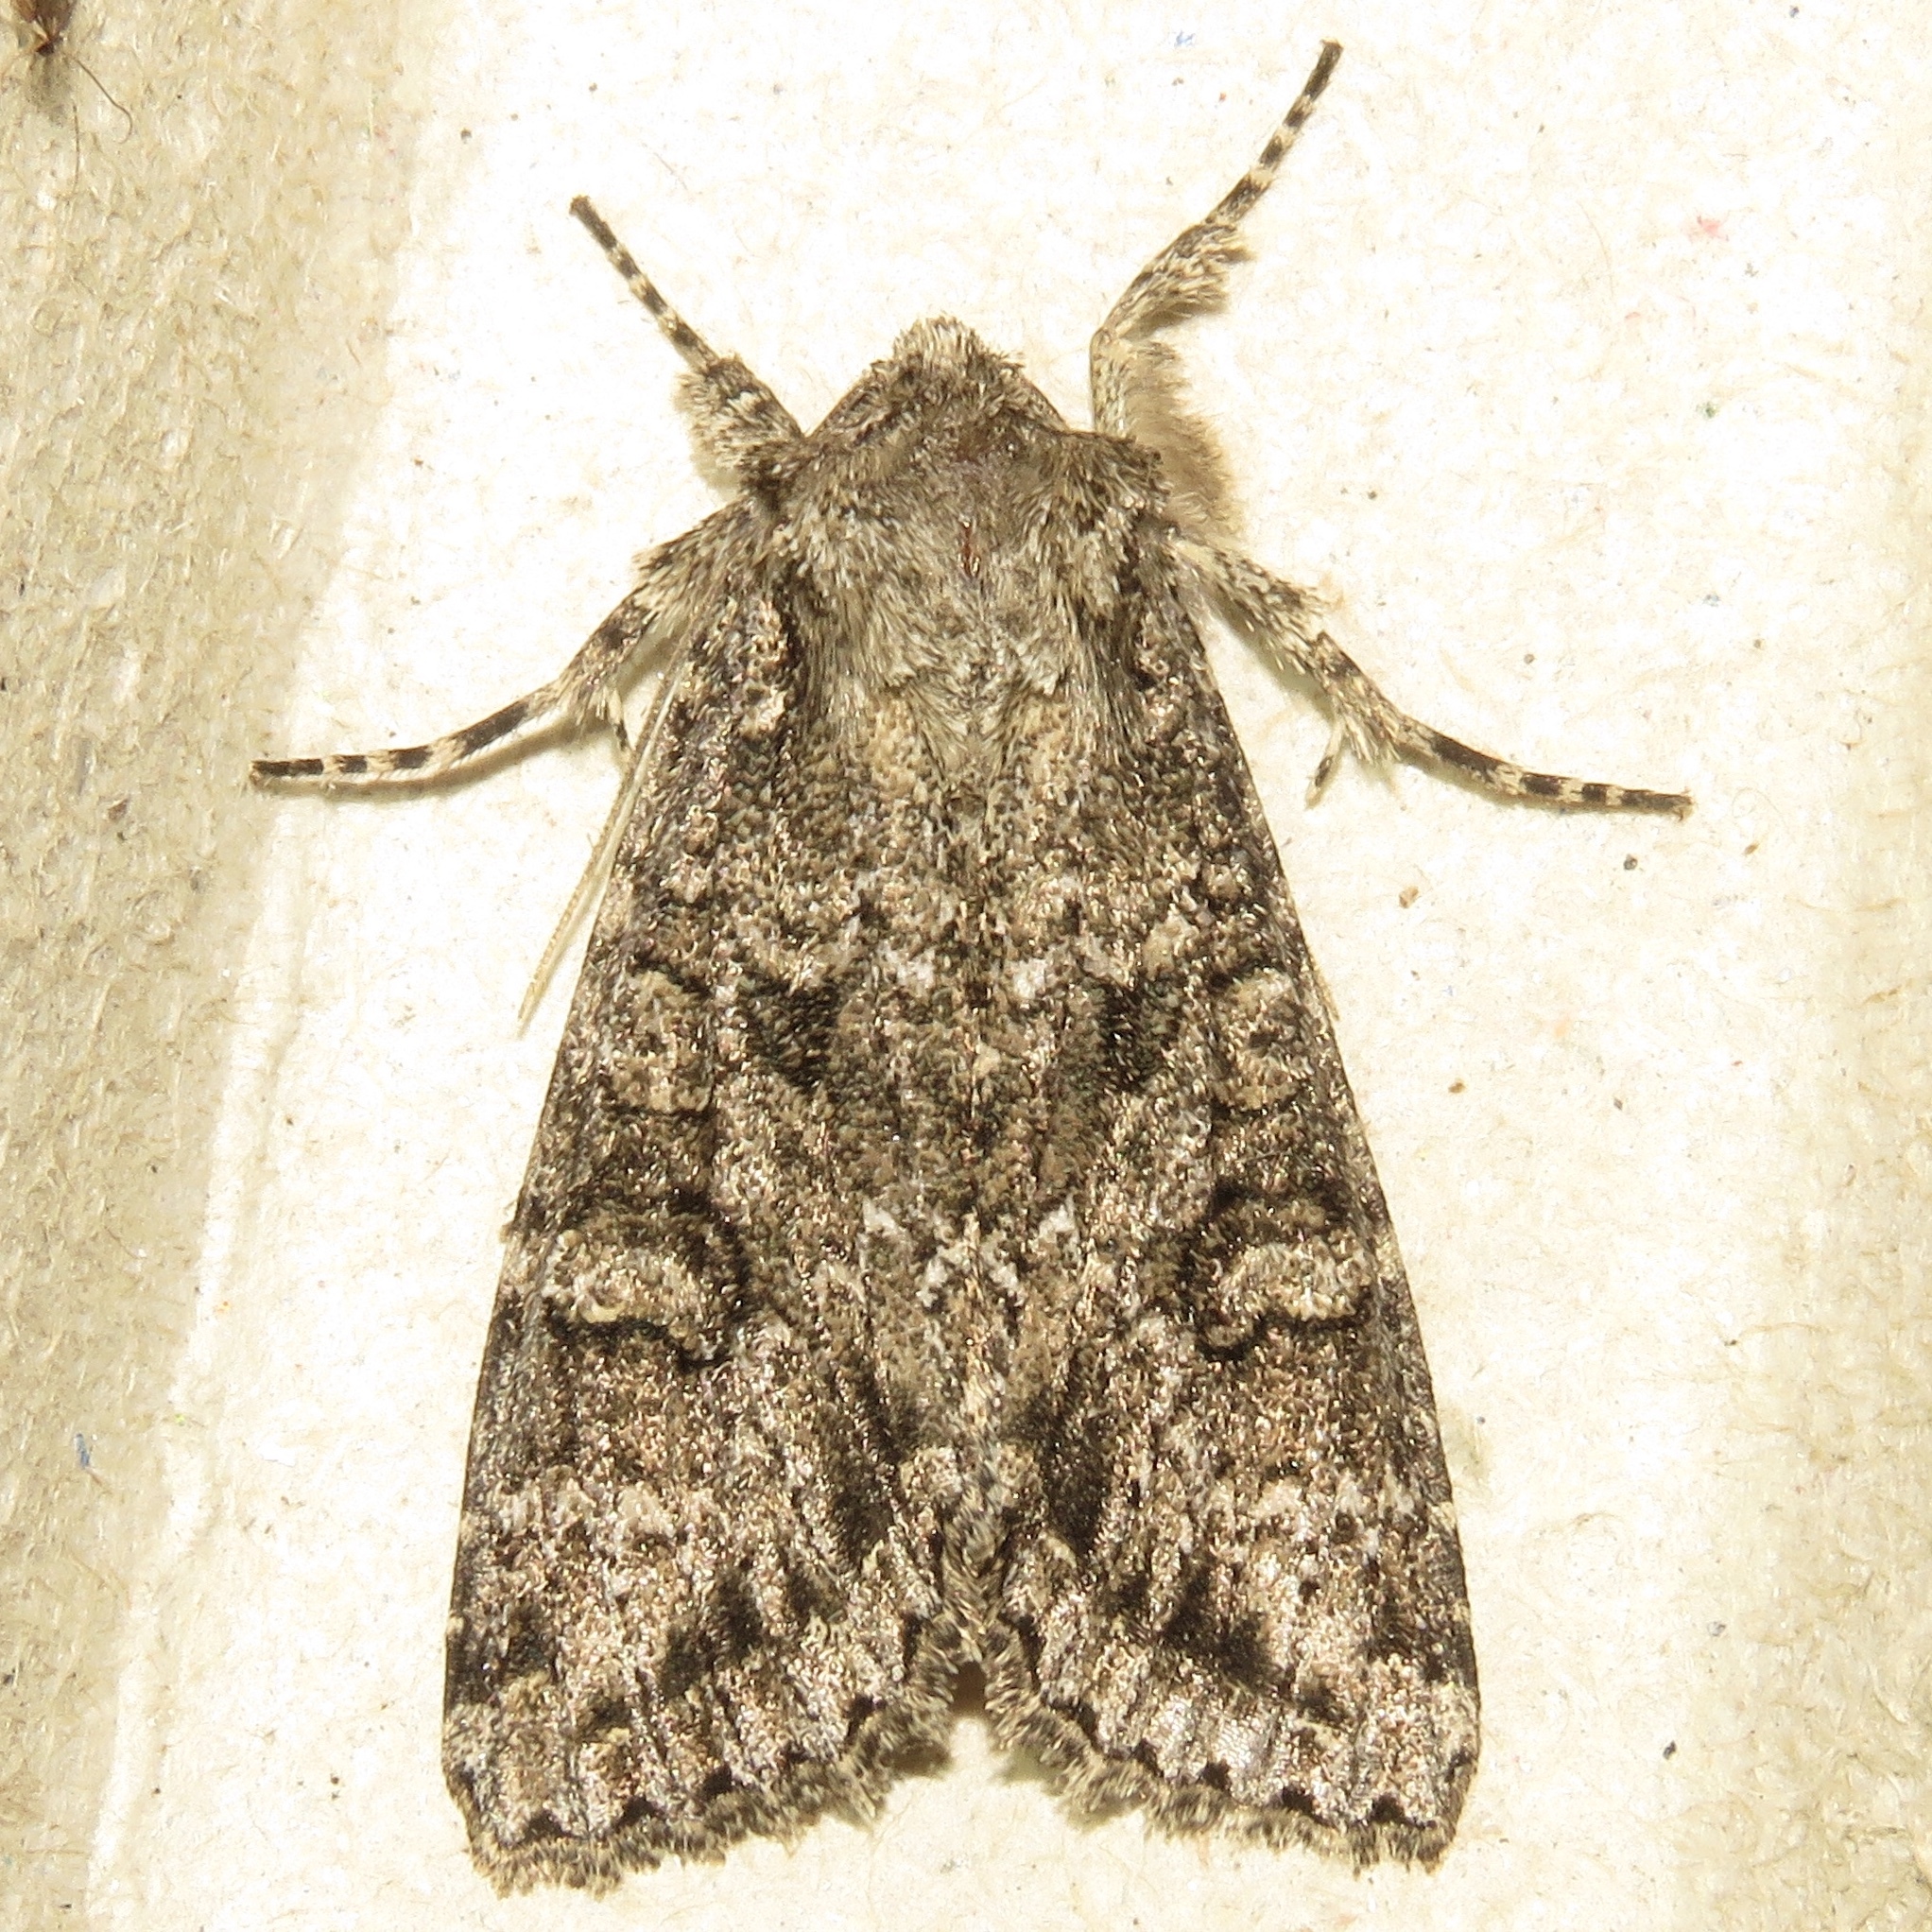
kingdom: Animalia
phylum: Arthropoda
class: Insecta
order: Lepidoptera
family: Noctuidae
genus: Apamea
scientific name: Apamea devastator
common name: Glassy cutworm
